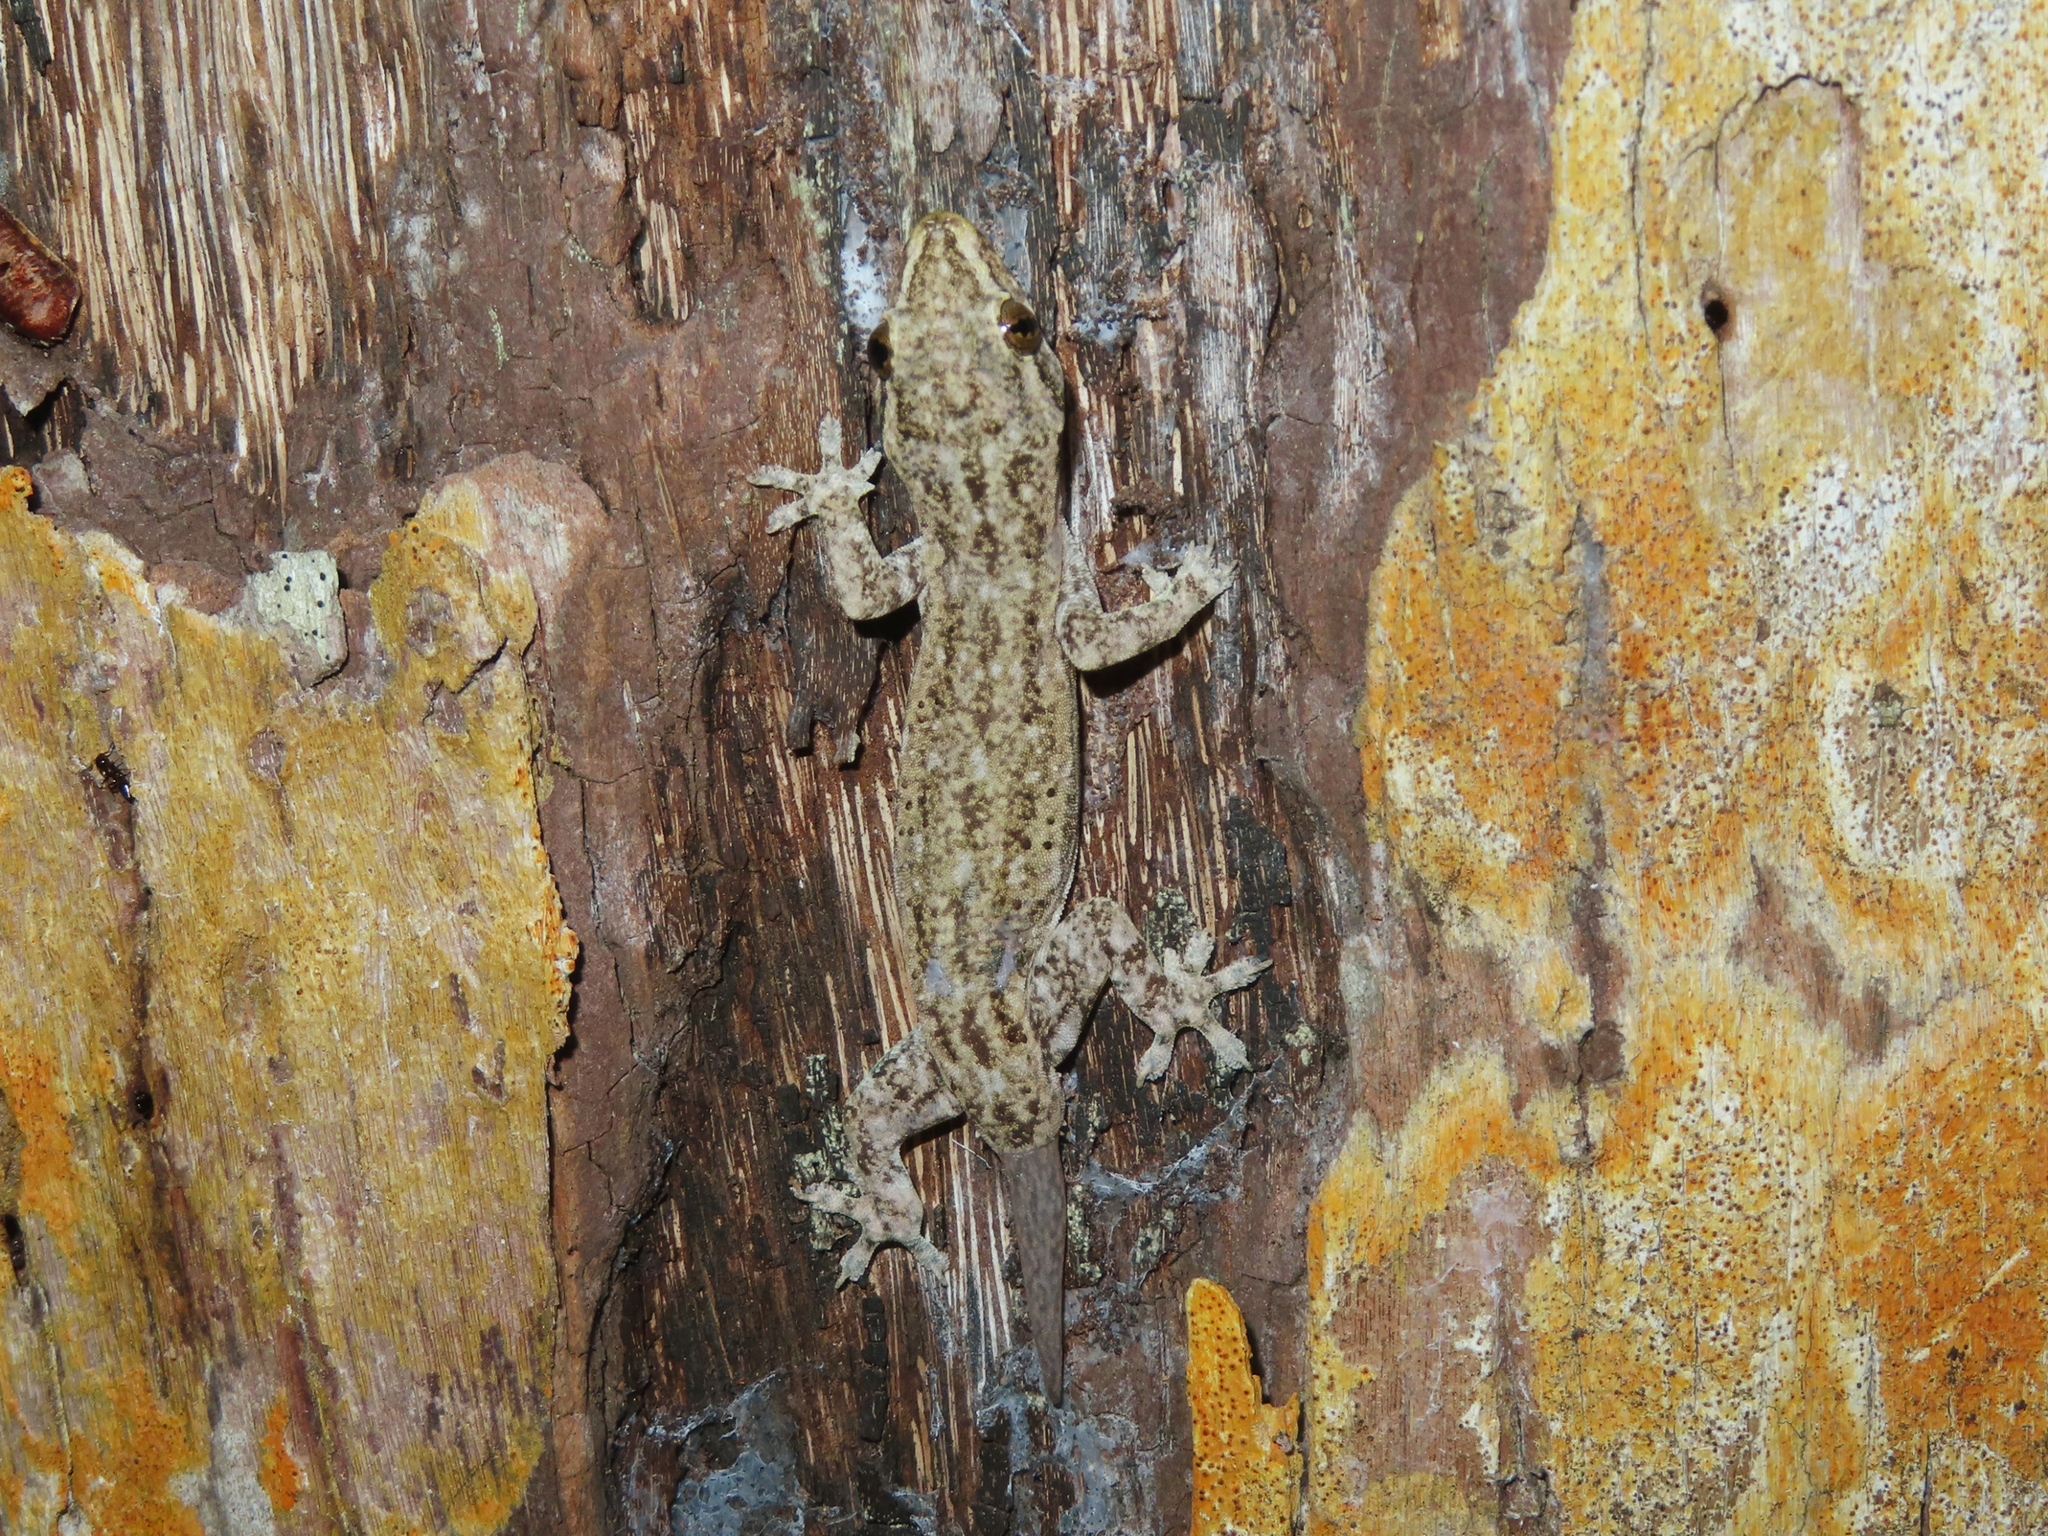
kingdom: Animalia
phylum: Chordata
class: Squamata
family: Gekkonidae
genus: Hemidactylus
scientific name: Hemidactylus frenatus
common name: Common house gecko
